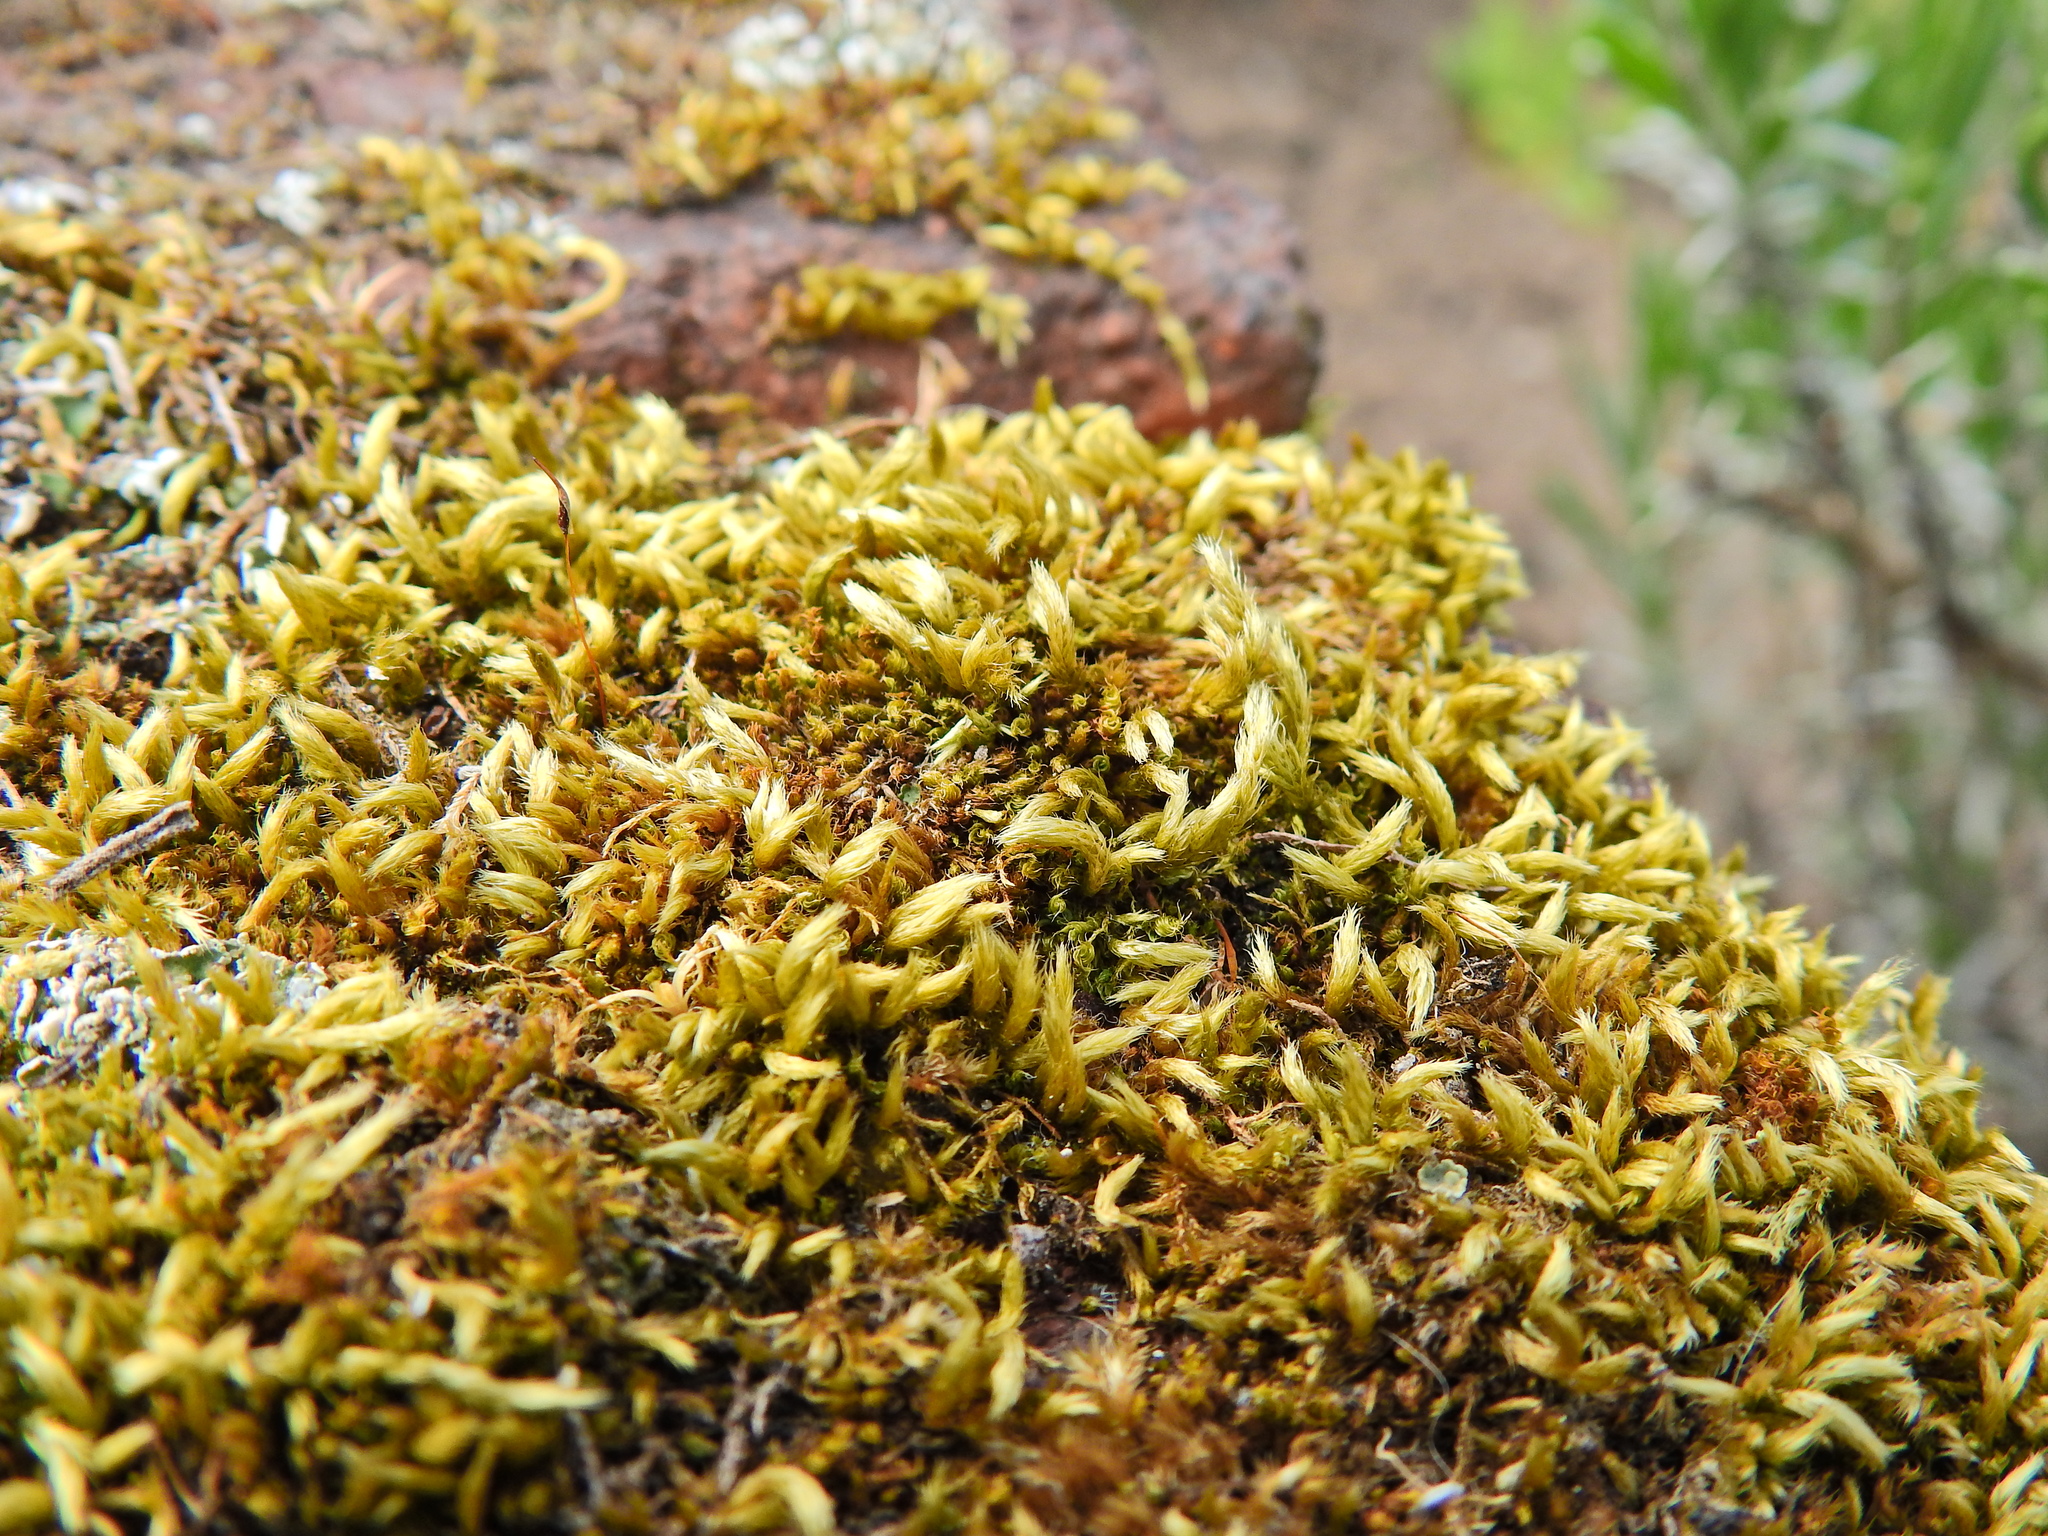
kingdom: Plantae
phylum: Bryophyta
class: Bryopsida
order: Hypnales
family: Brachytheciaceae
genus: Homalothecium
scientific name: Homalothecium sericeum
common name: Silky wall feather-moss
